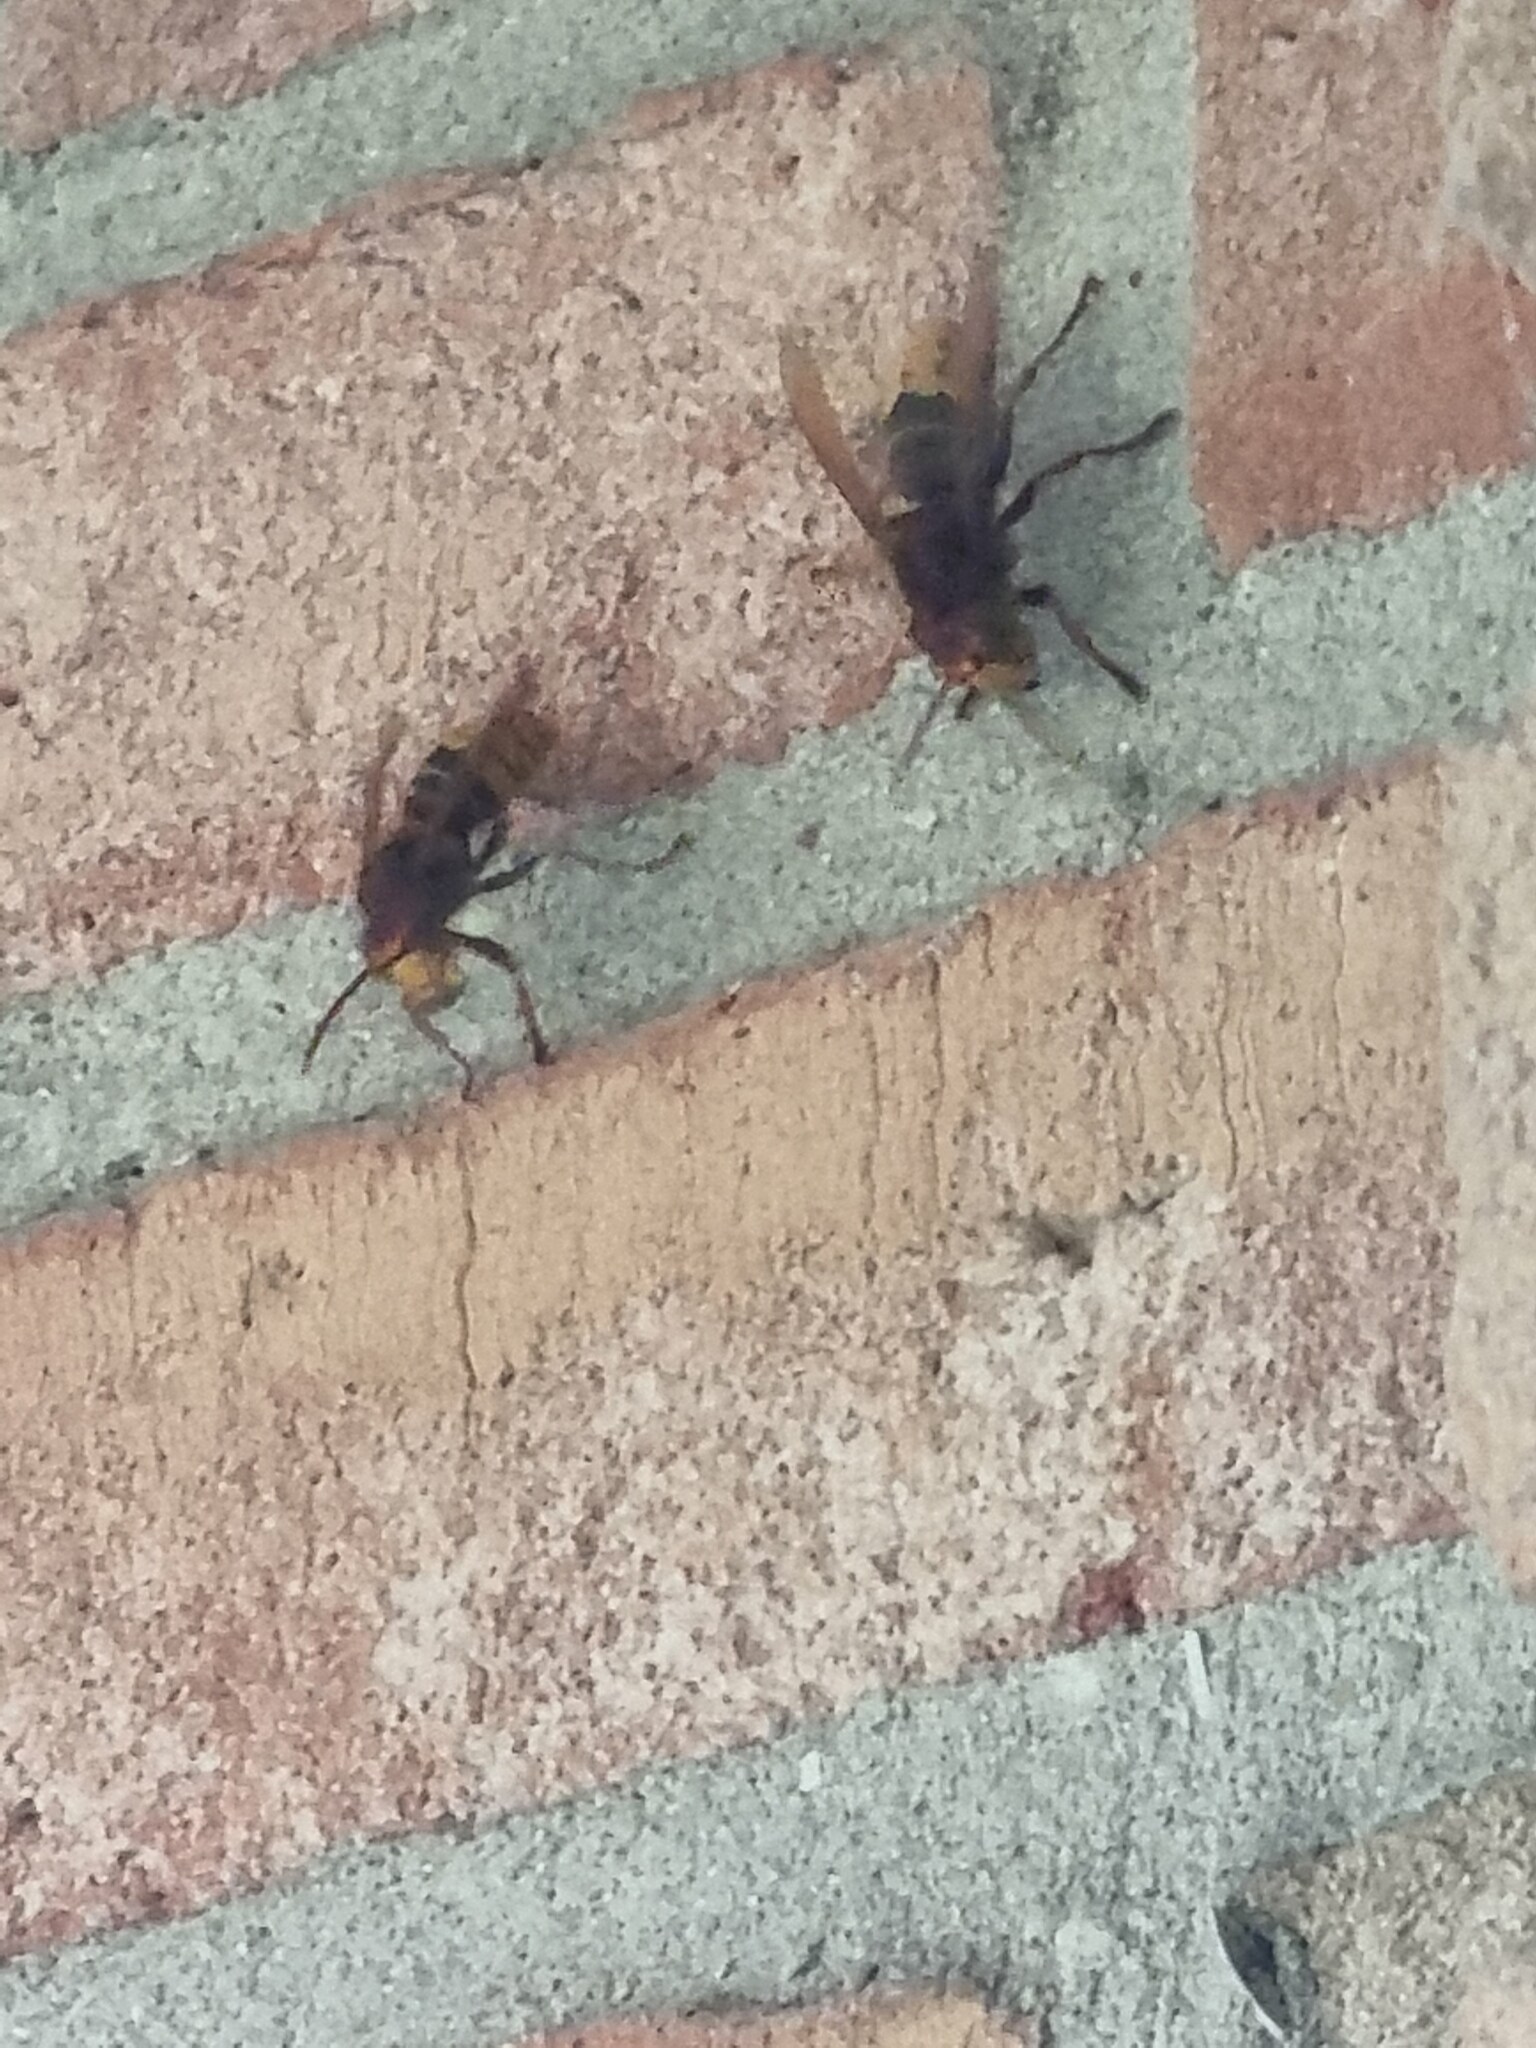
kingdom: Animalia
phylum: Arthropoda
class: Insecta
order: Hymenoptera
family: Vespidae
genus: Vespa
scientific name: Vespa crabro
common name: Hornet
